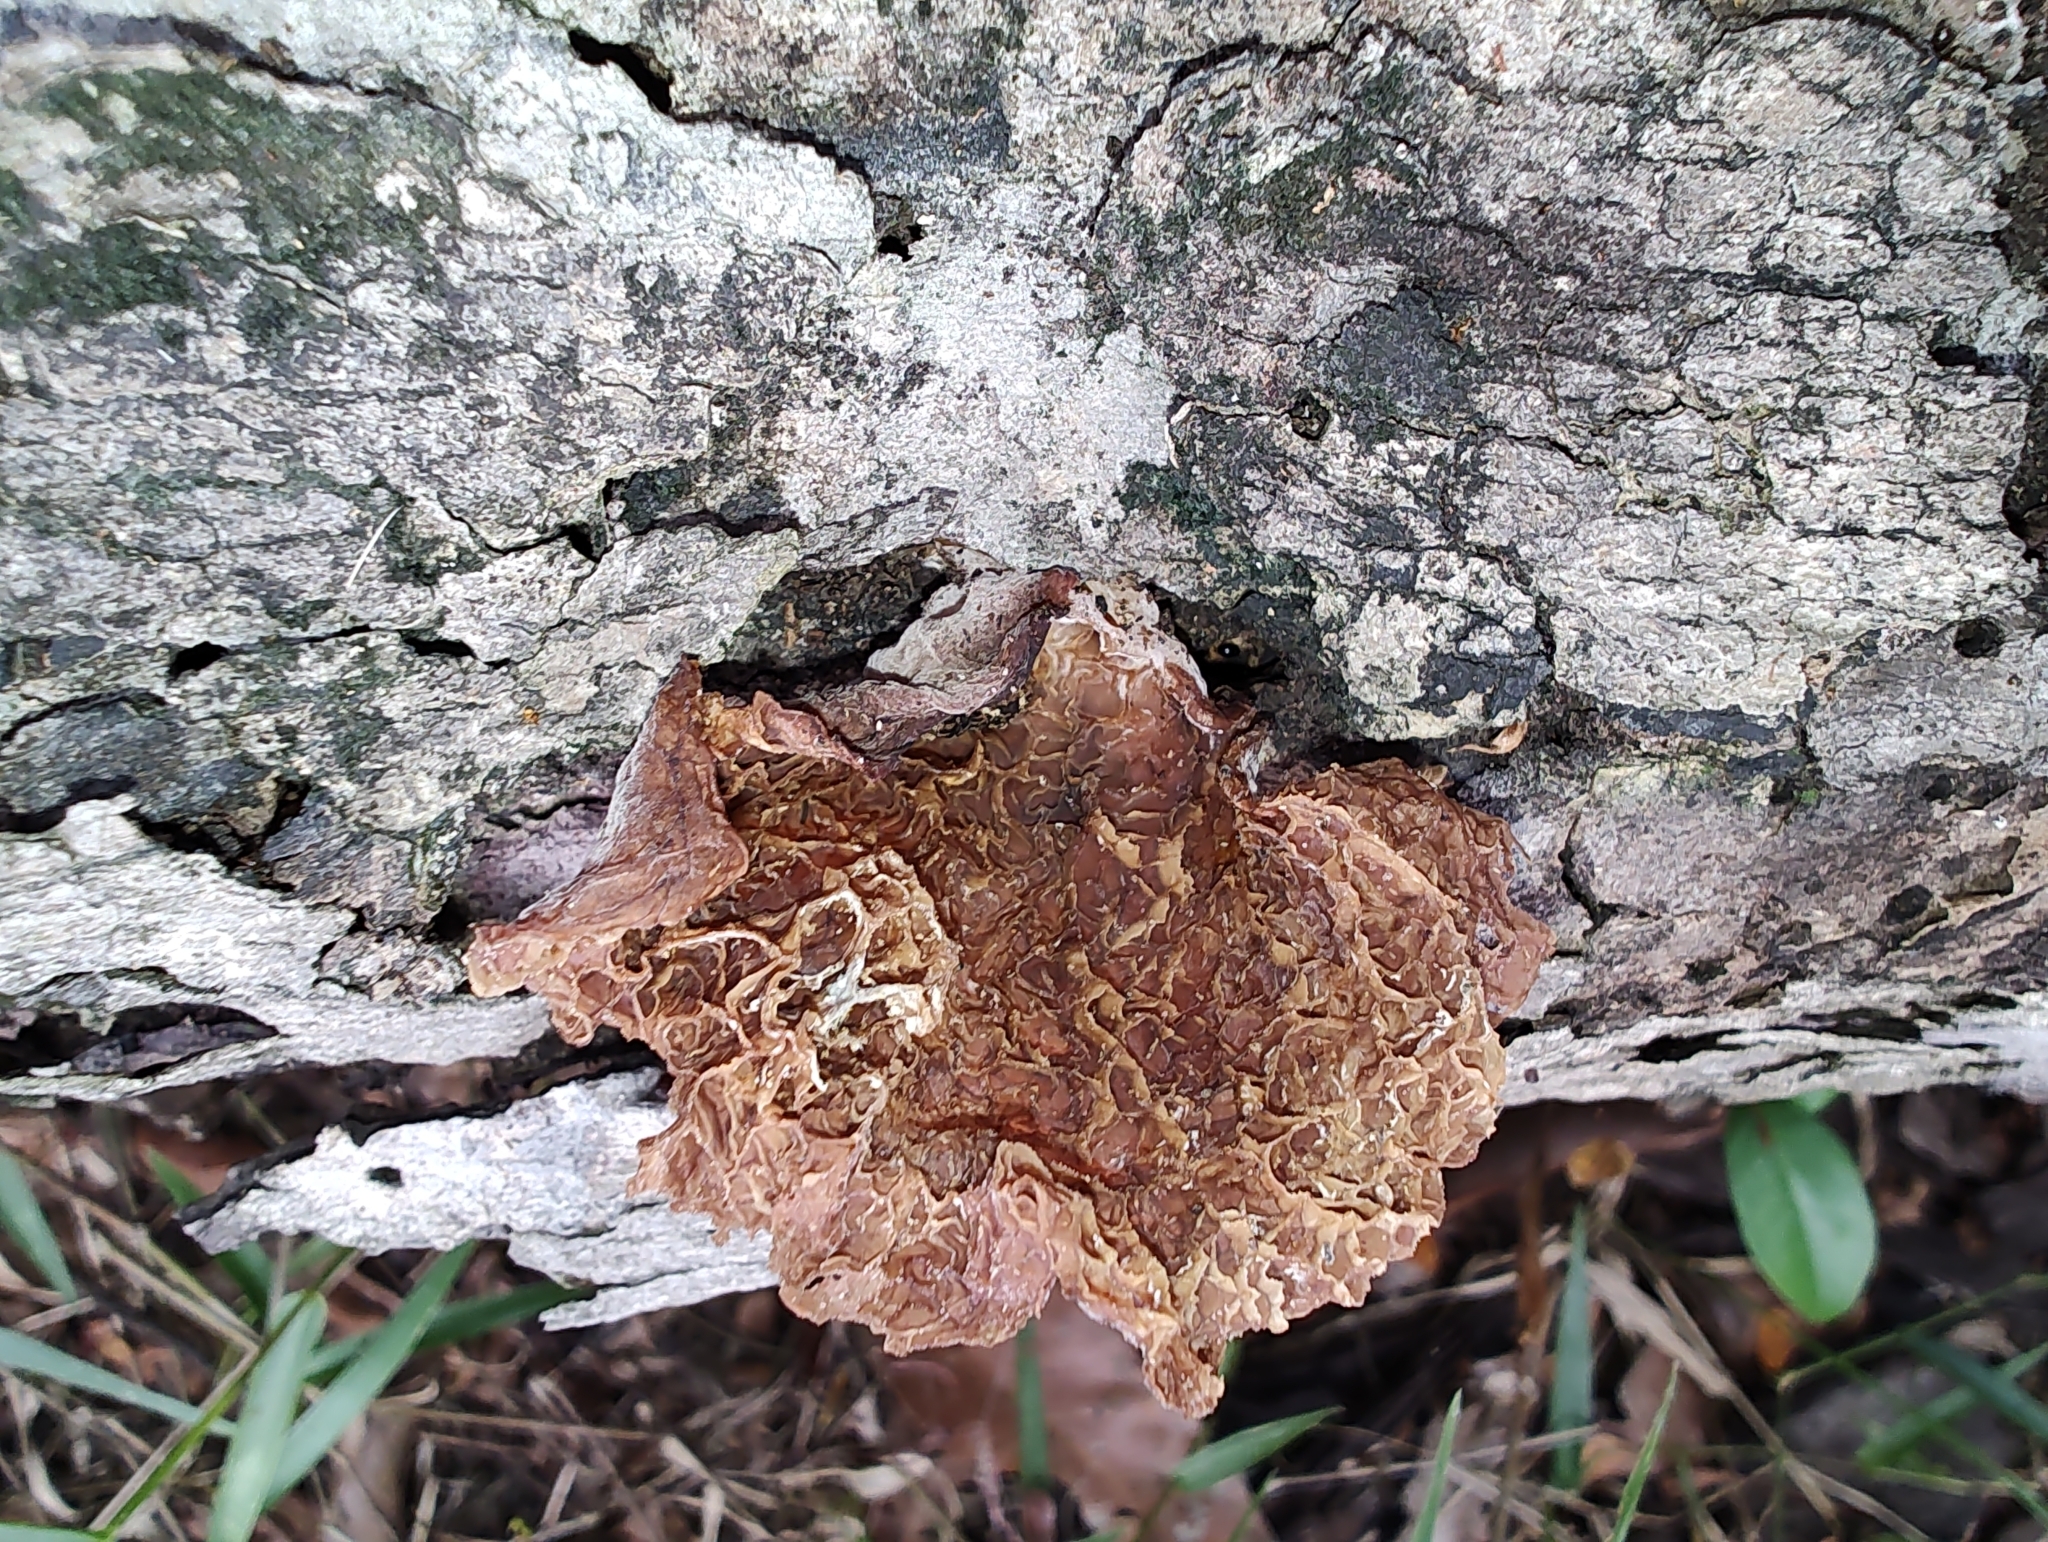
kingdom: Fungi
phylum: Basidiomycota
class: Agaricomycetes
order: Auriculariales
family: Auriculariaceae
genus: Auricularia
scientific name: Auricularia delicata
